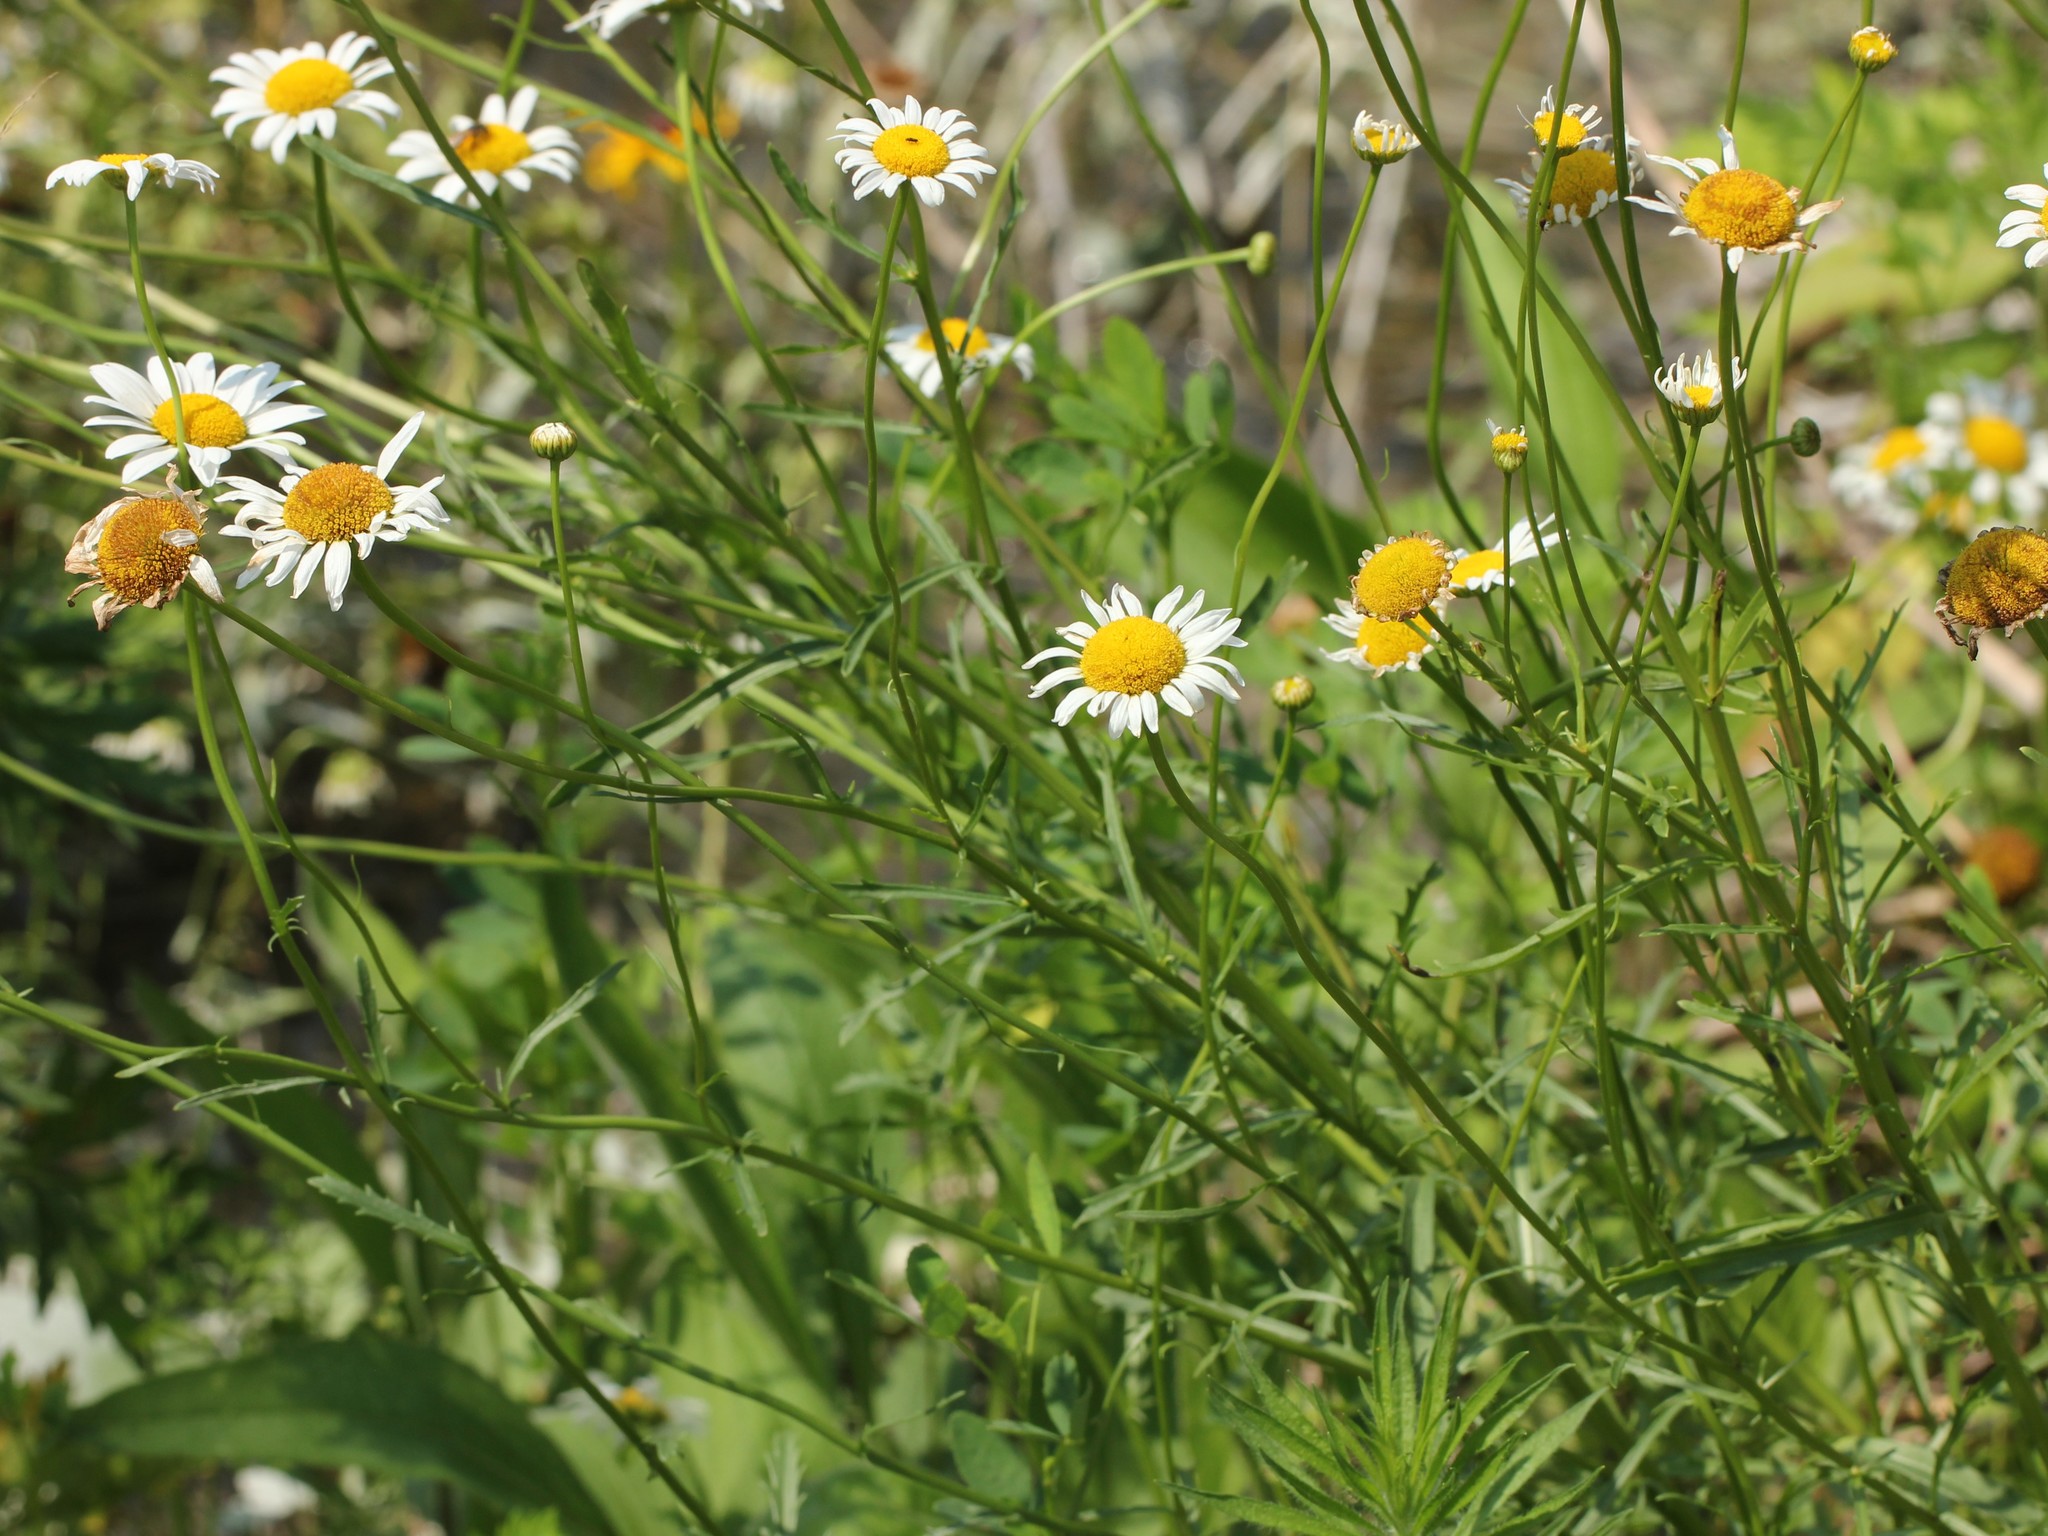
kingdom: Plantae
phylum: Tracheophyta
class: Magnoliopsida
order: Asterales
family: Asteraceae
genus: Leucanthemum
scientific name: Leucanthemum vulgare
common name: Oxeye daisy
